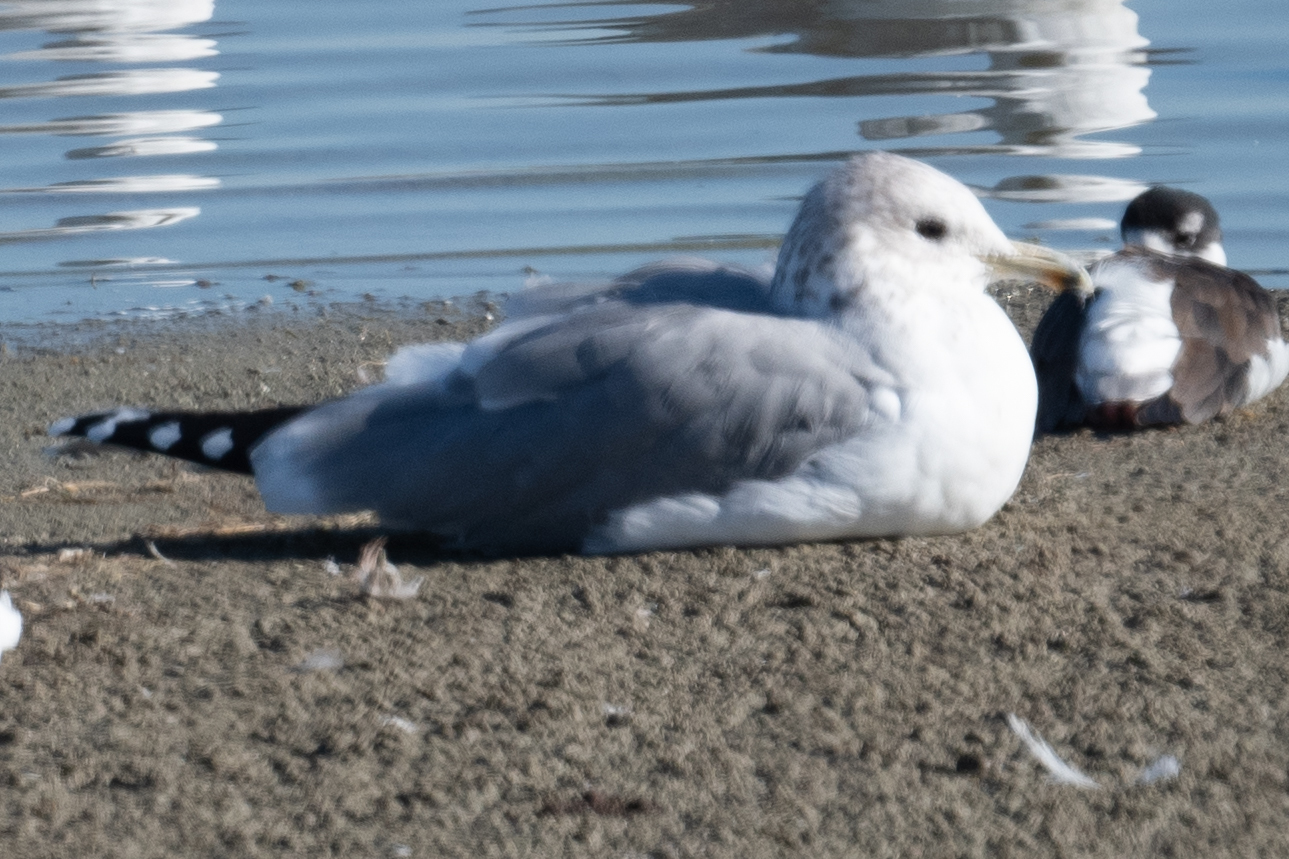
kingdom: Animalia
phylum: Chordata
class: Aves
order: Charadriiformes
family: Laridae
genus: Larus
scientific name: Larus californicus
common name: California gull
